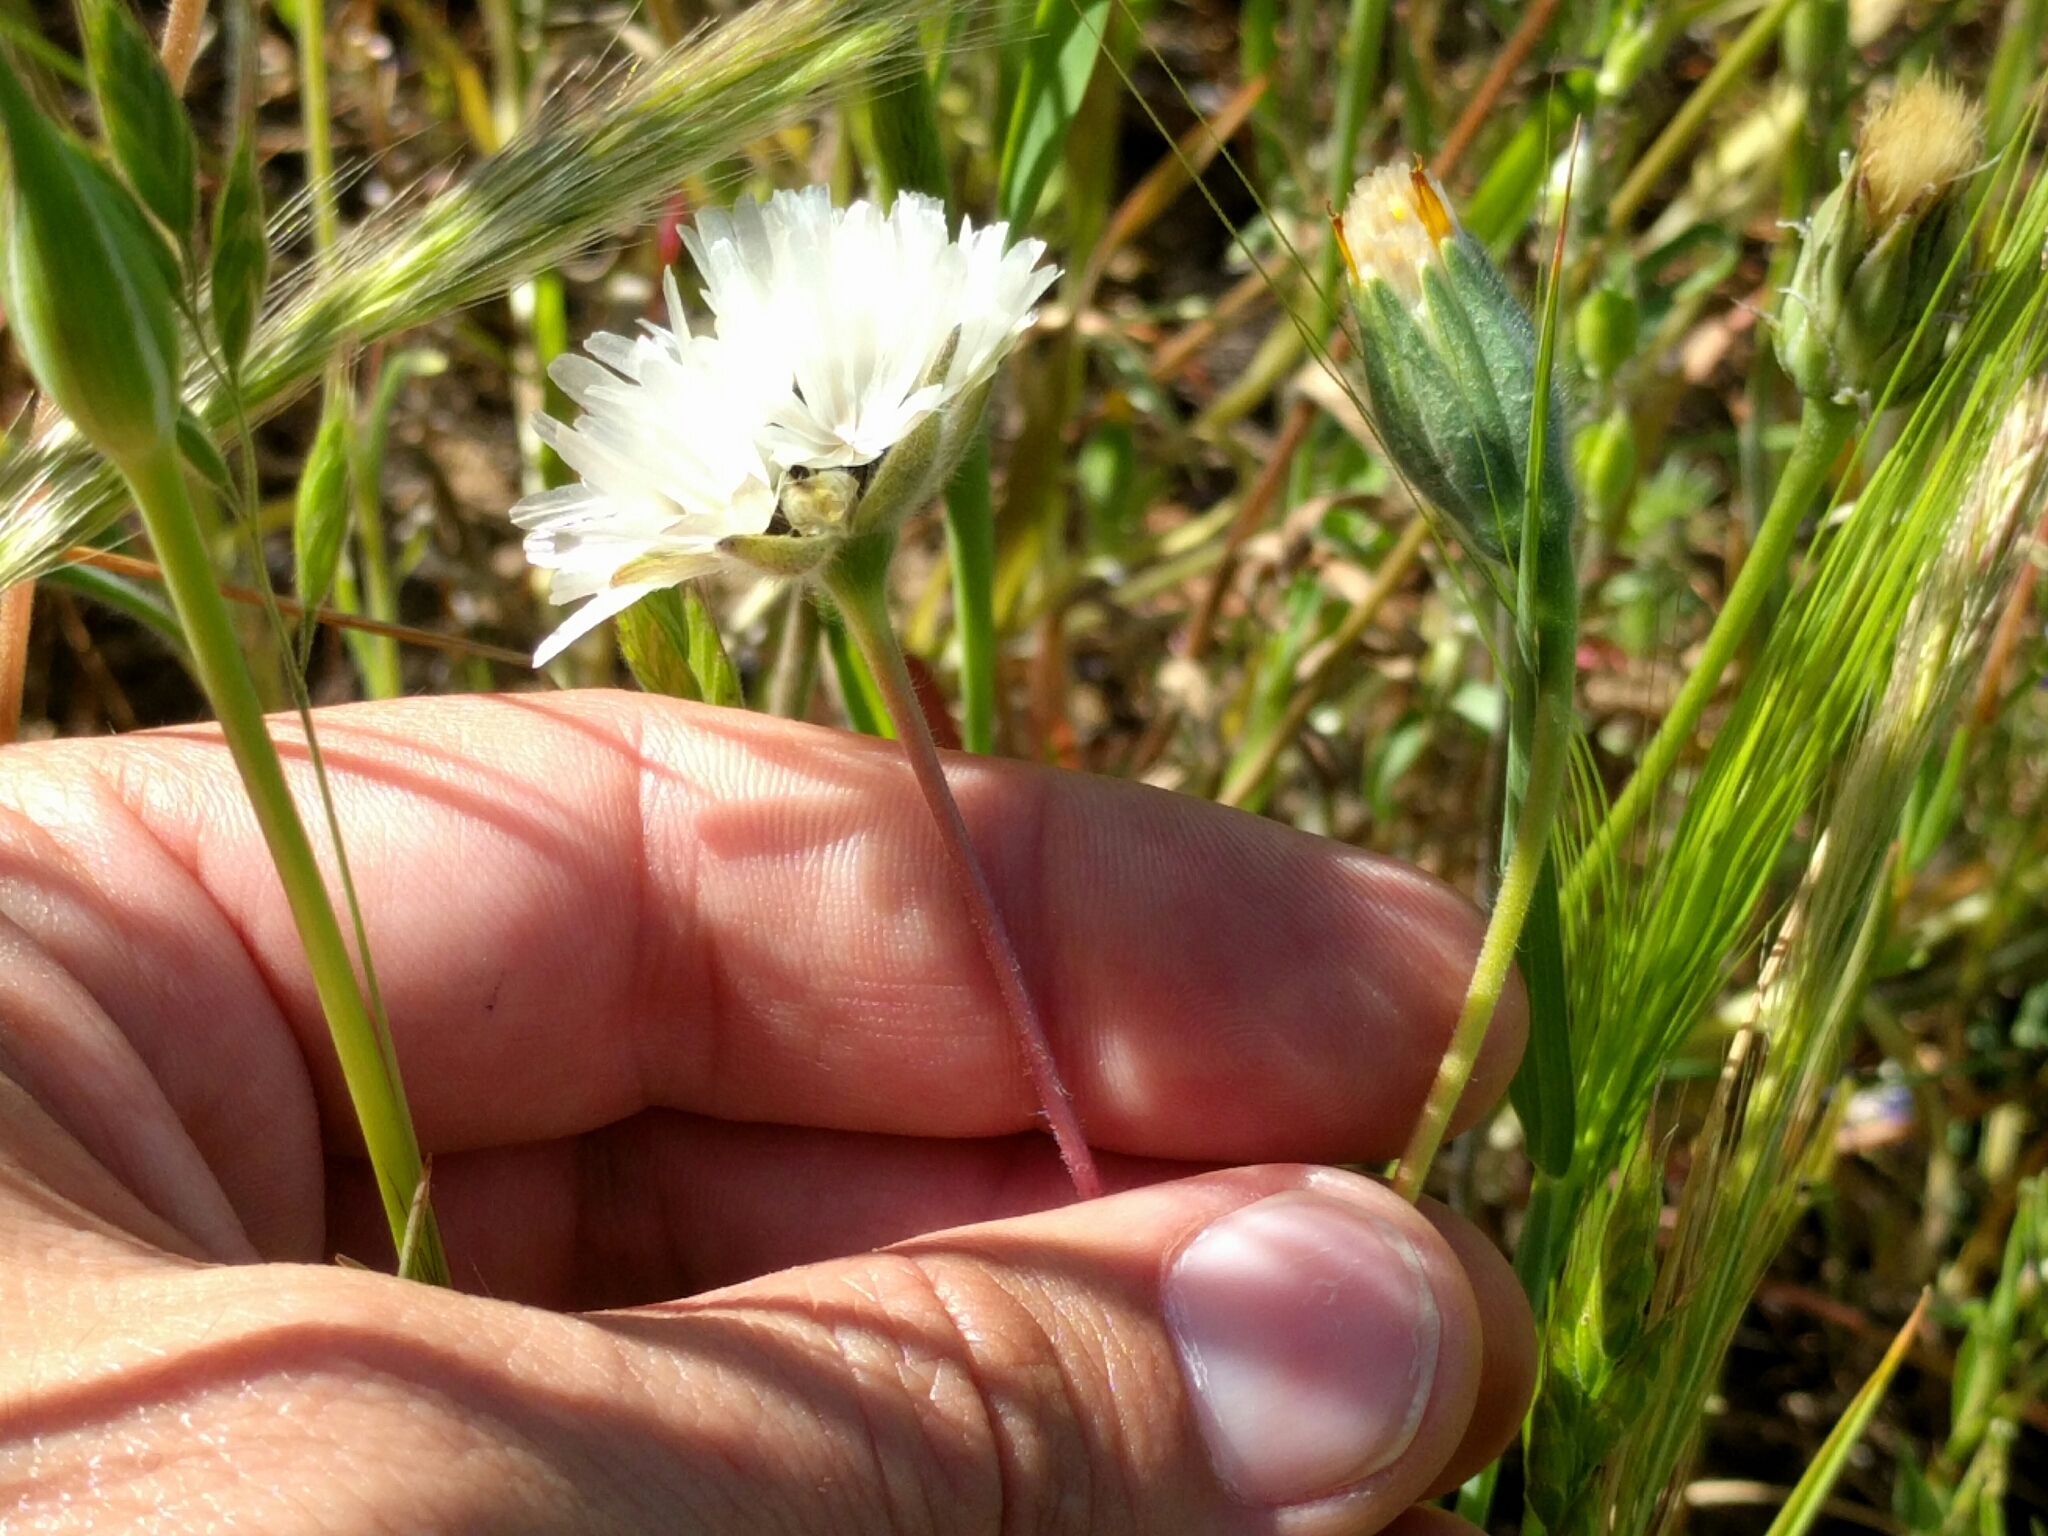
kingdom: Plantae
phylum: Tracheophyta
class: Magnoliopsida
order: Asterales
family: Asteraceae
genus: Achyrachaena
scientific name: Achyrachaena mollis
